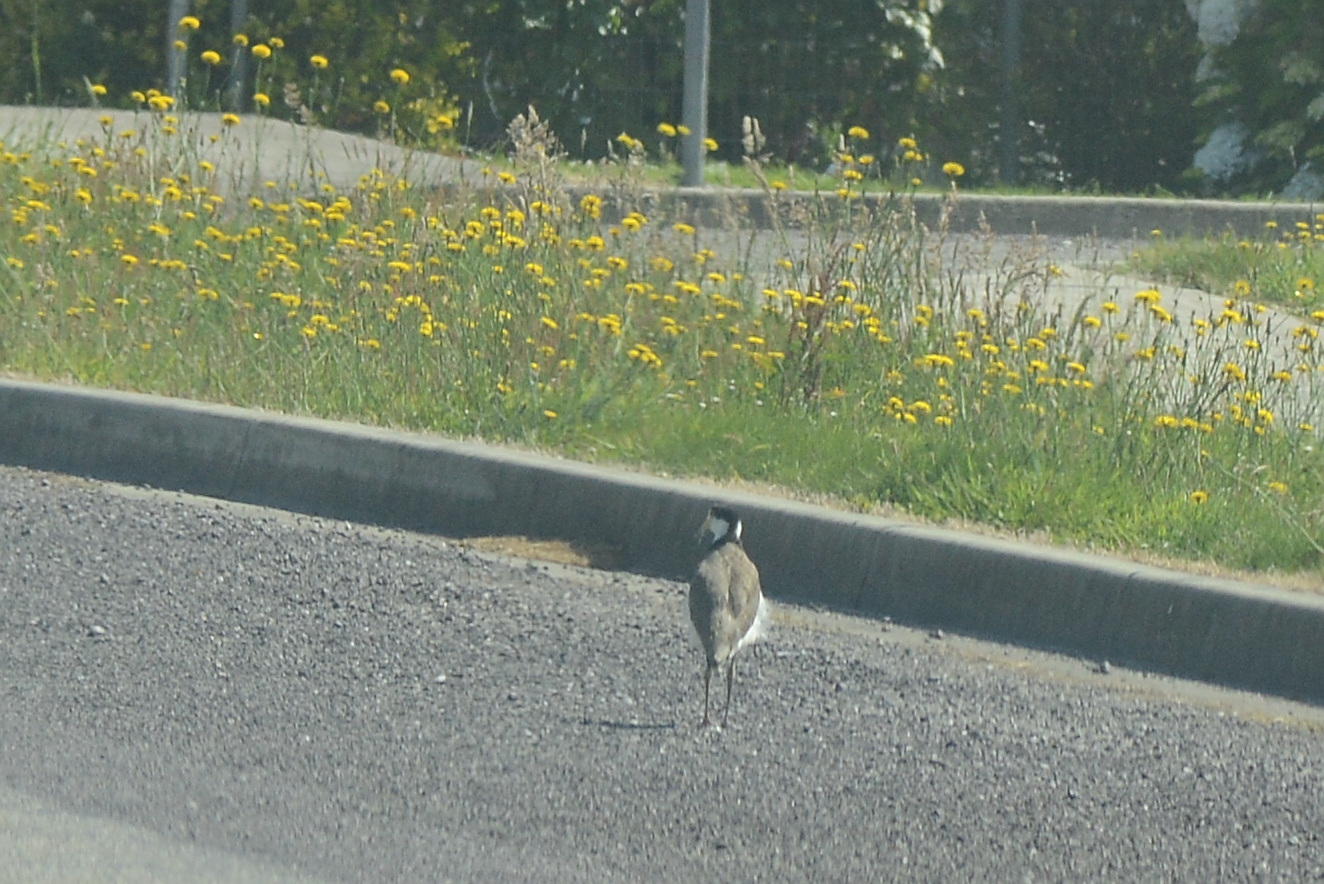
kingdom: Animalia
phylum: Chordata
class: Aves
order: Charadriiformes
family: Charadriidae
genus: Vanellus
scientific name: Vanellus miles
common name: Masked lapwing
